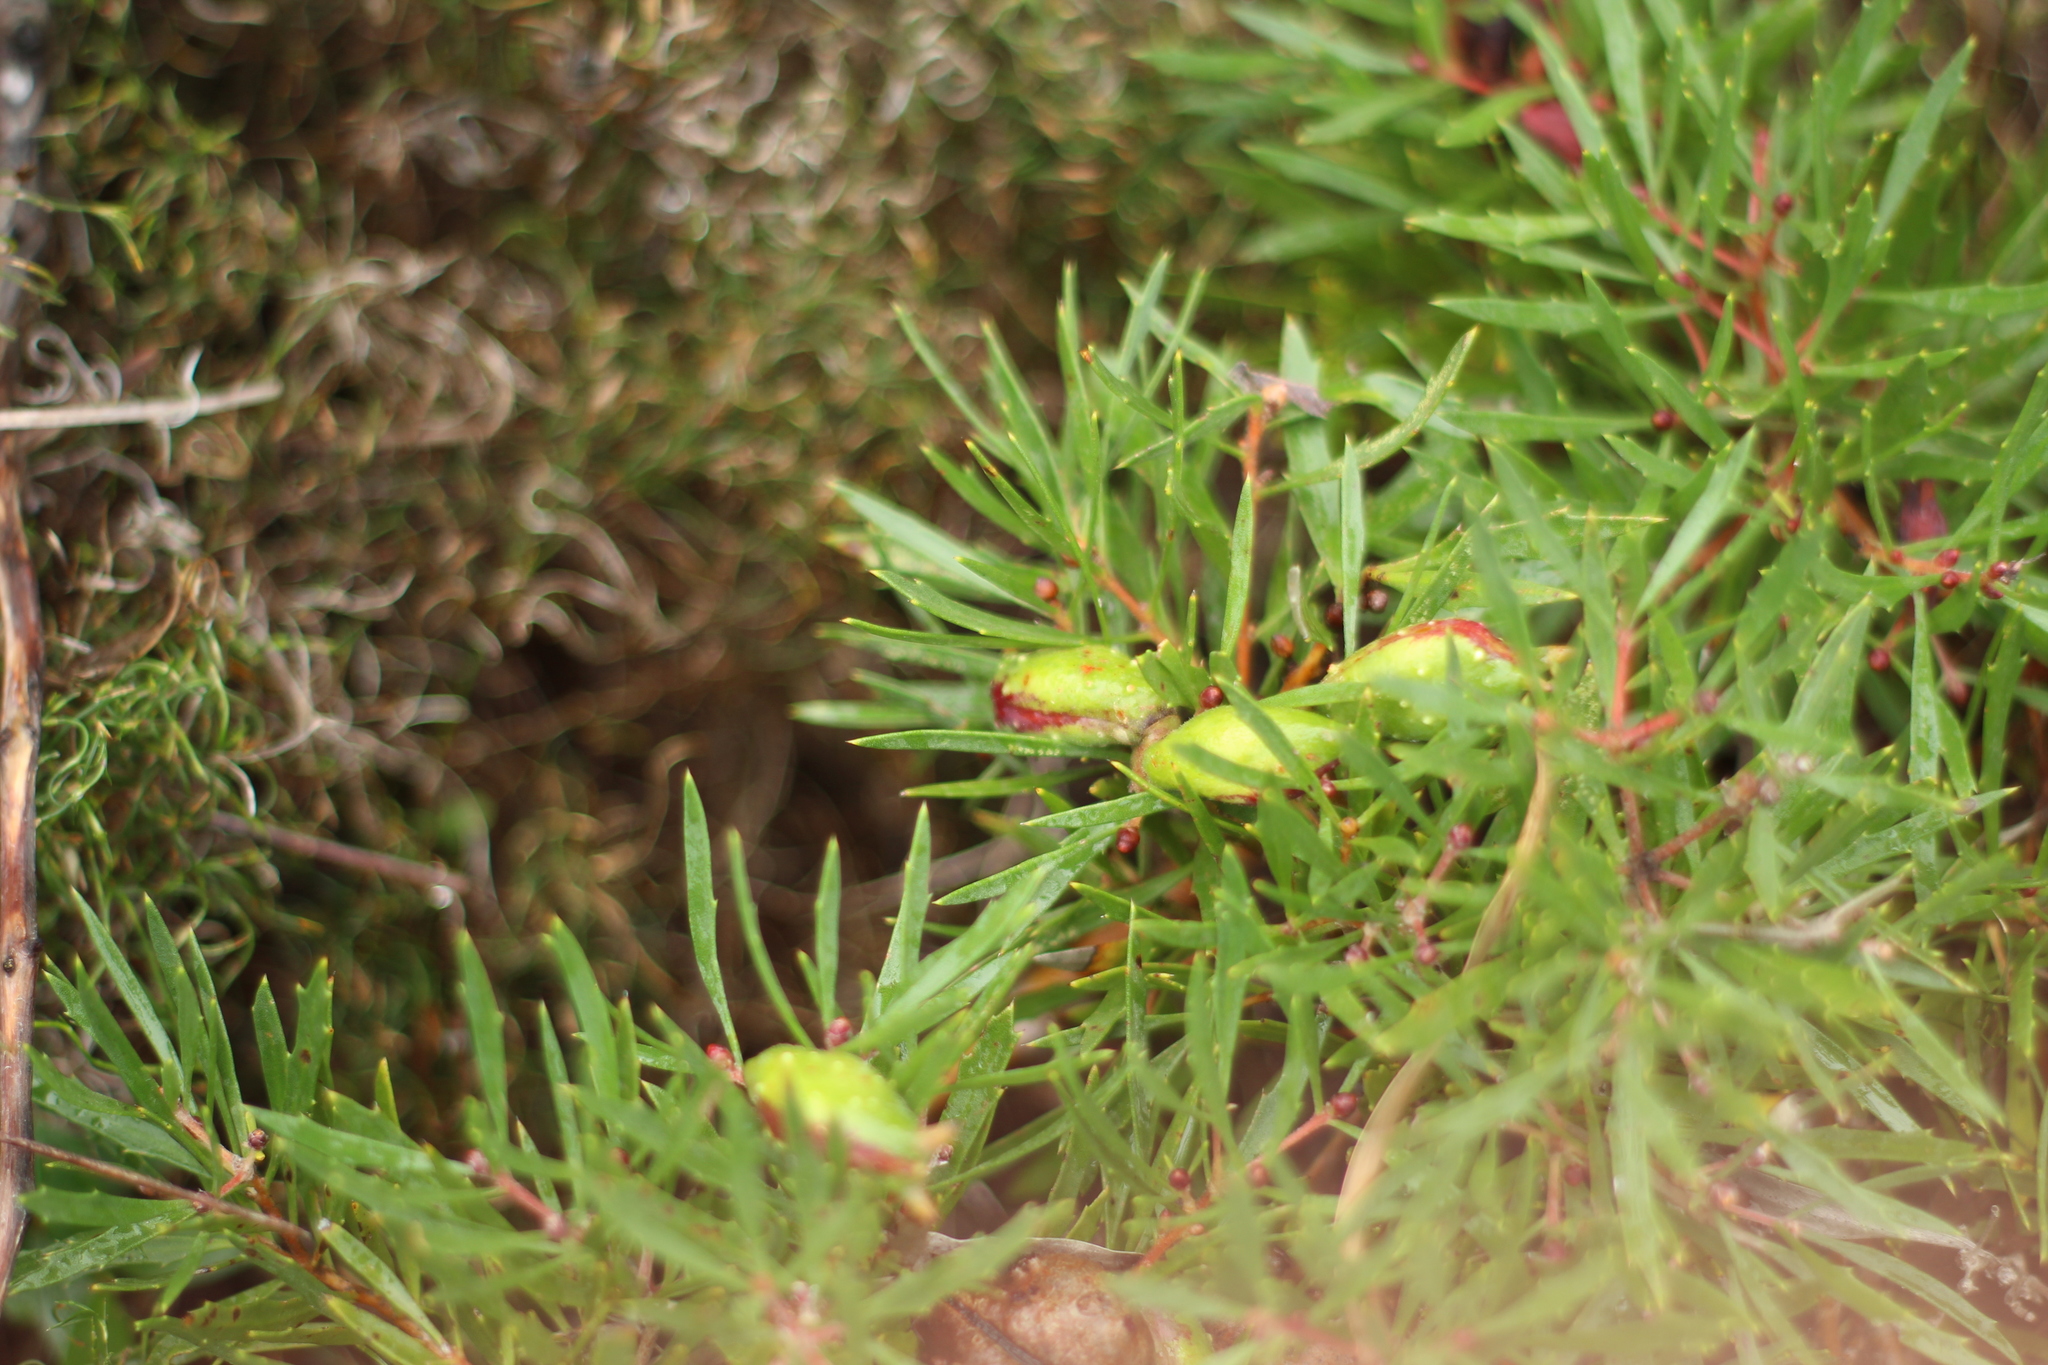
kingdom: Plantae
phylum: Tracheophyta
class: Magnoliopsida
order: Proteales
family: Proteaceae
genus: Hakea
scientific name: Hakea linearis
